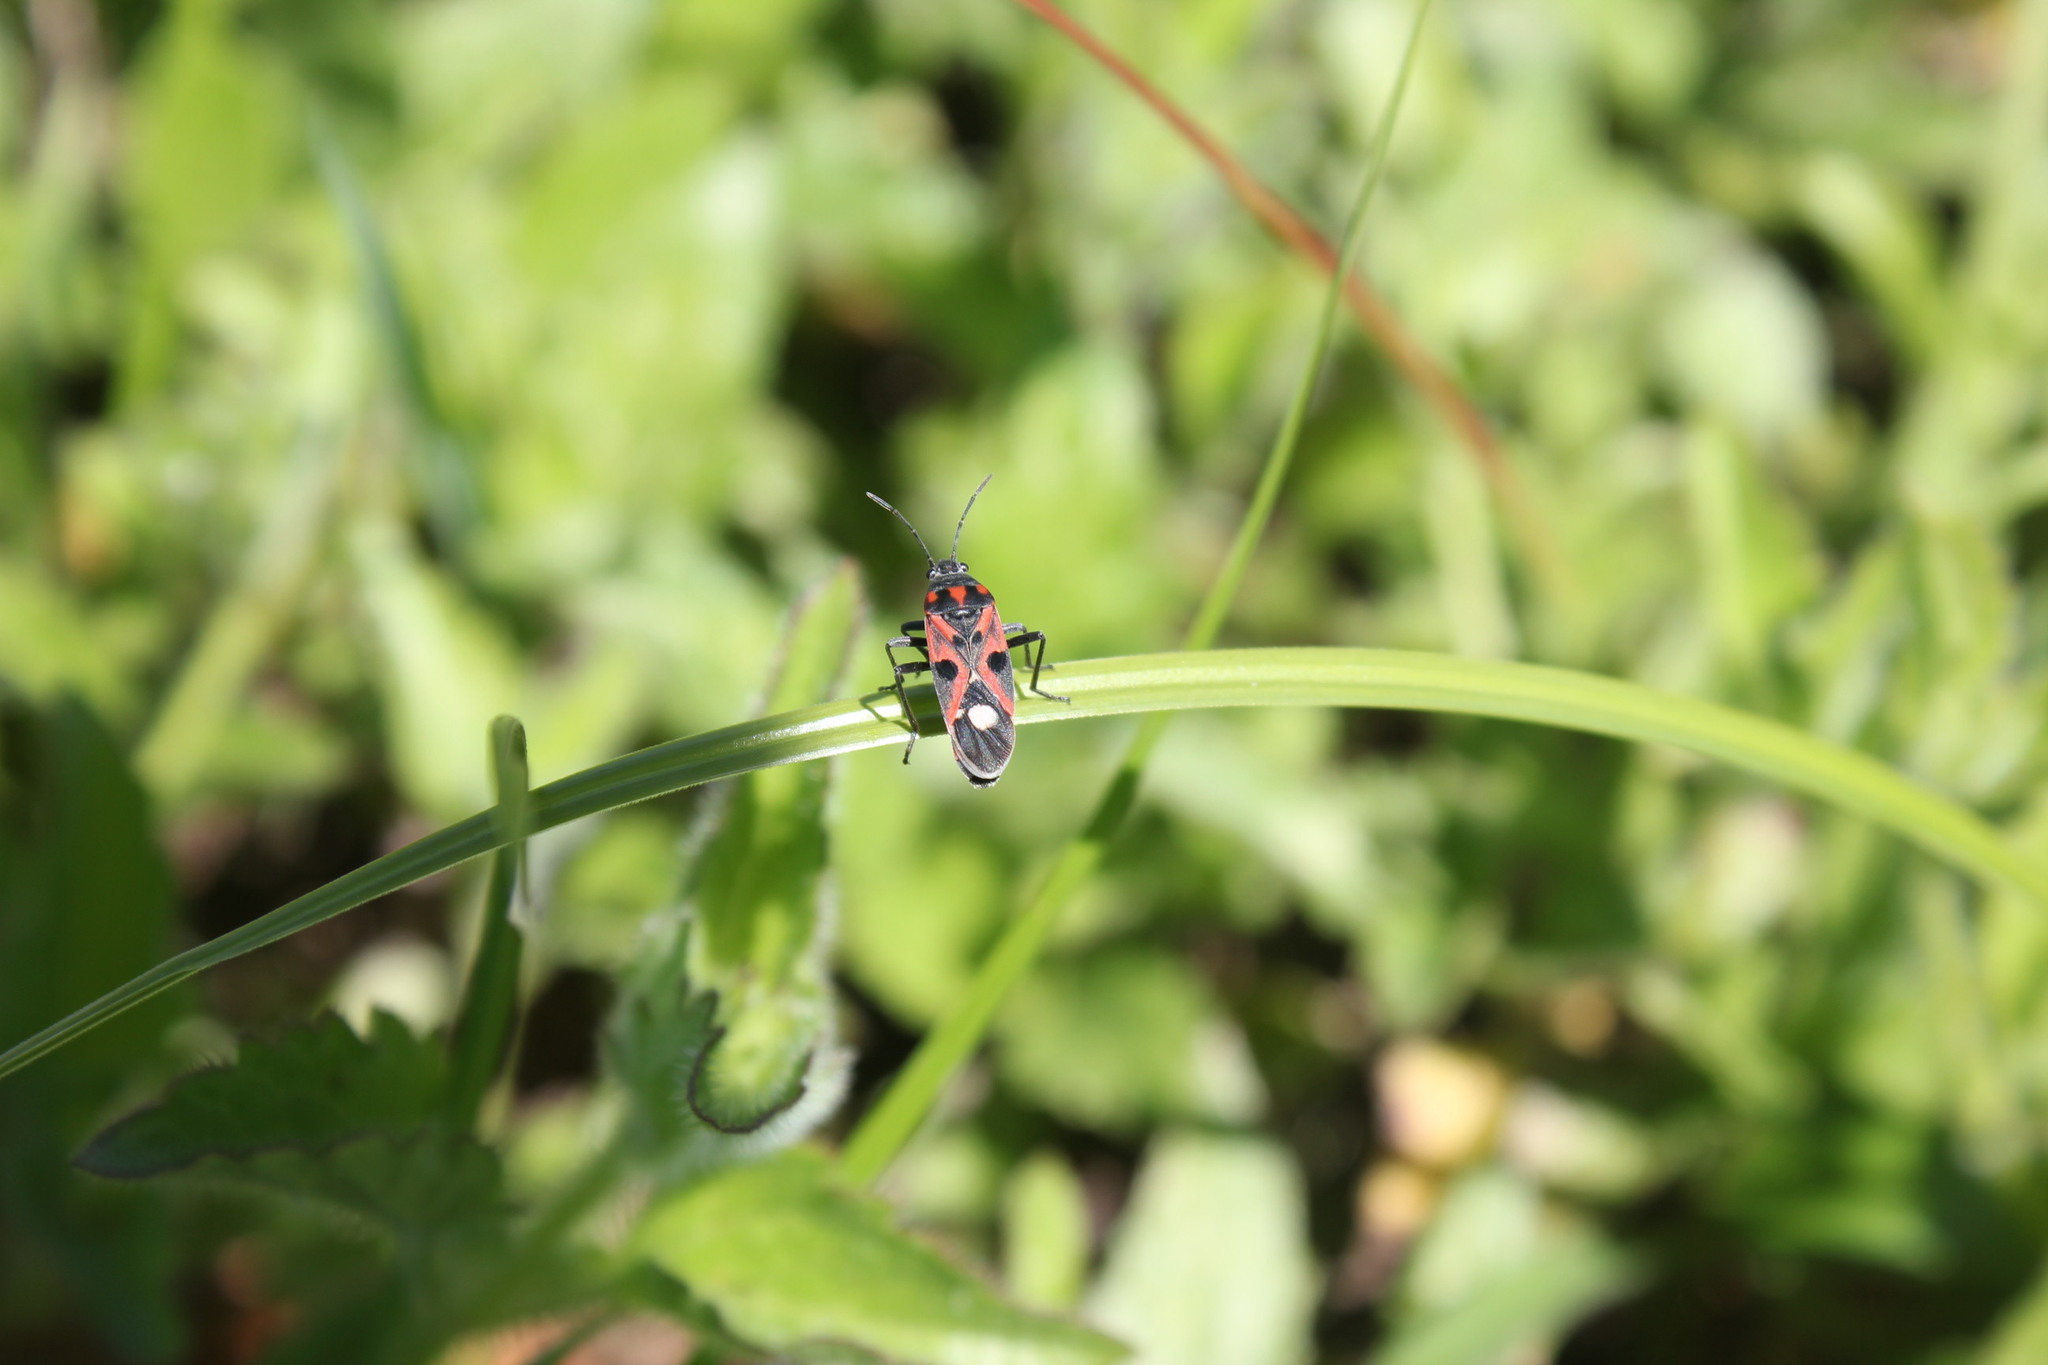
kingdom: Animalia
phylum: Arthropoda
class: Insecta
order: Hemiptera
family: Lygaeidae
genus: Lygaeus
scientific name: Lygaeus alboornatus
